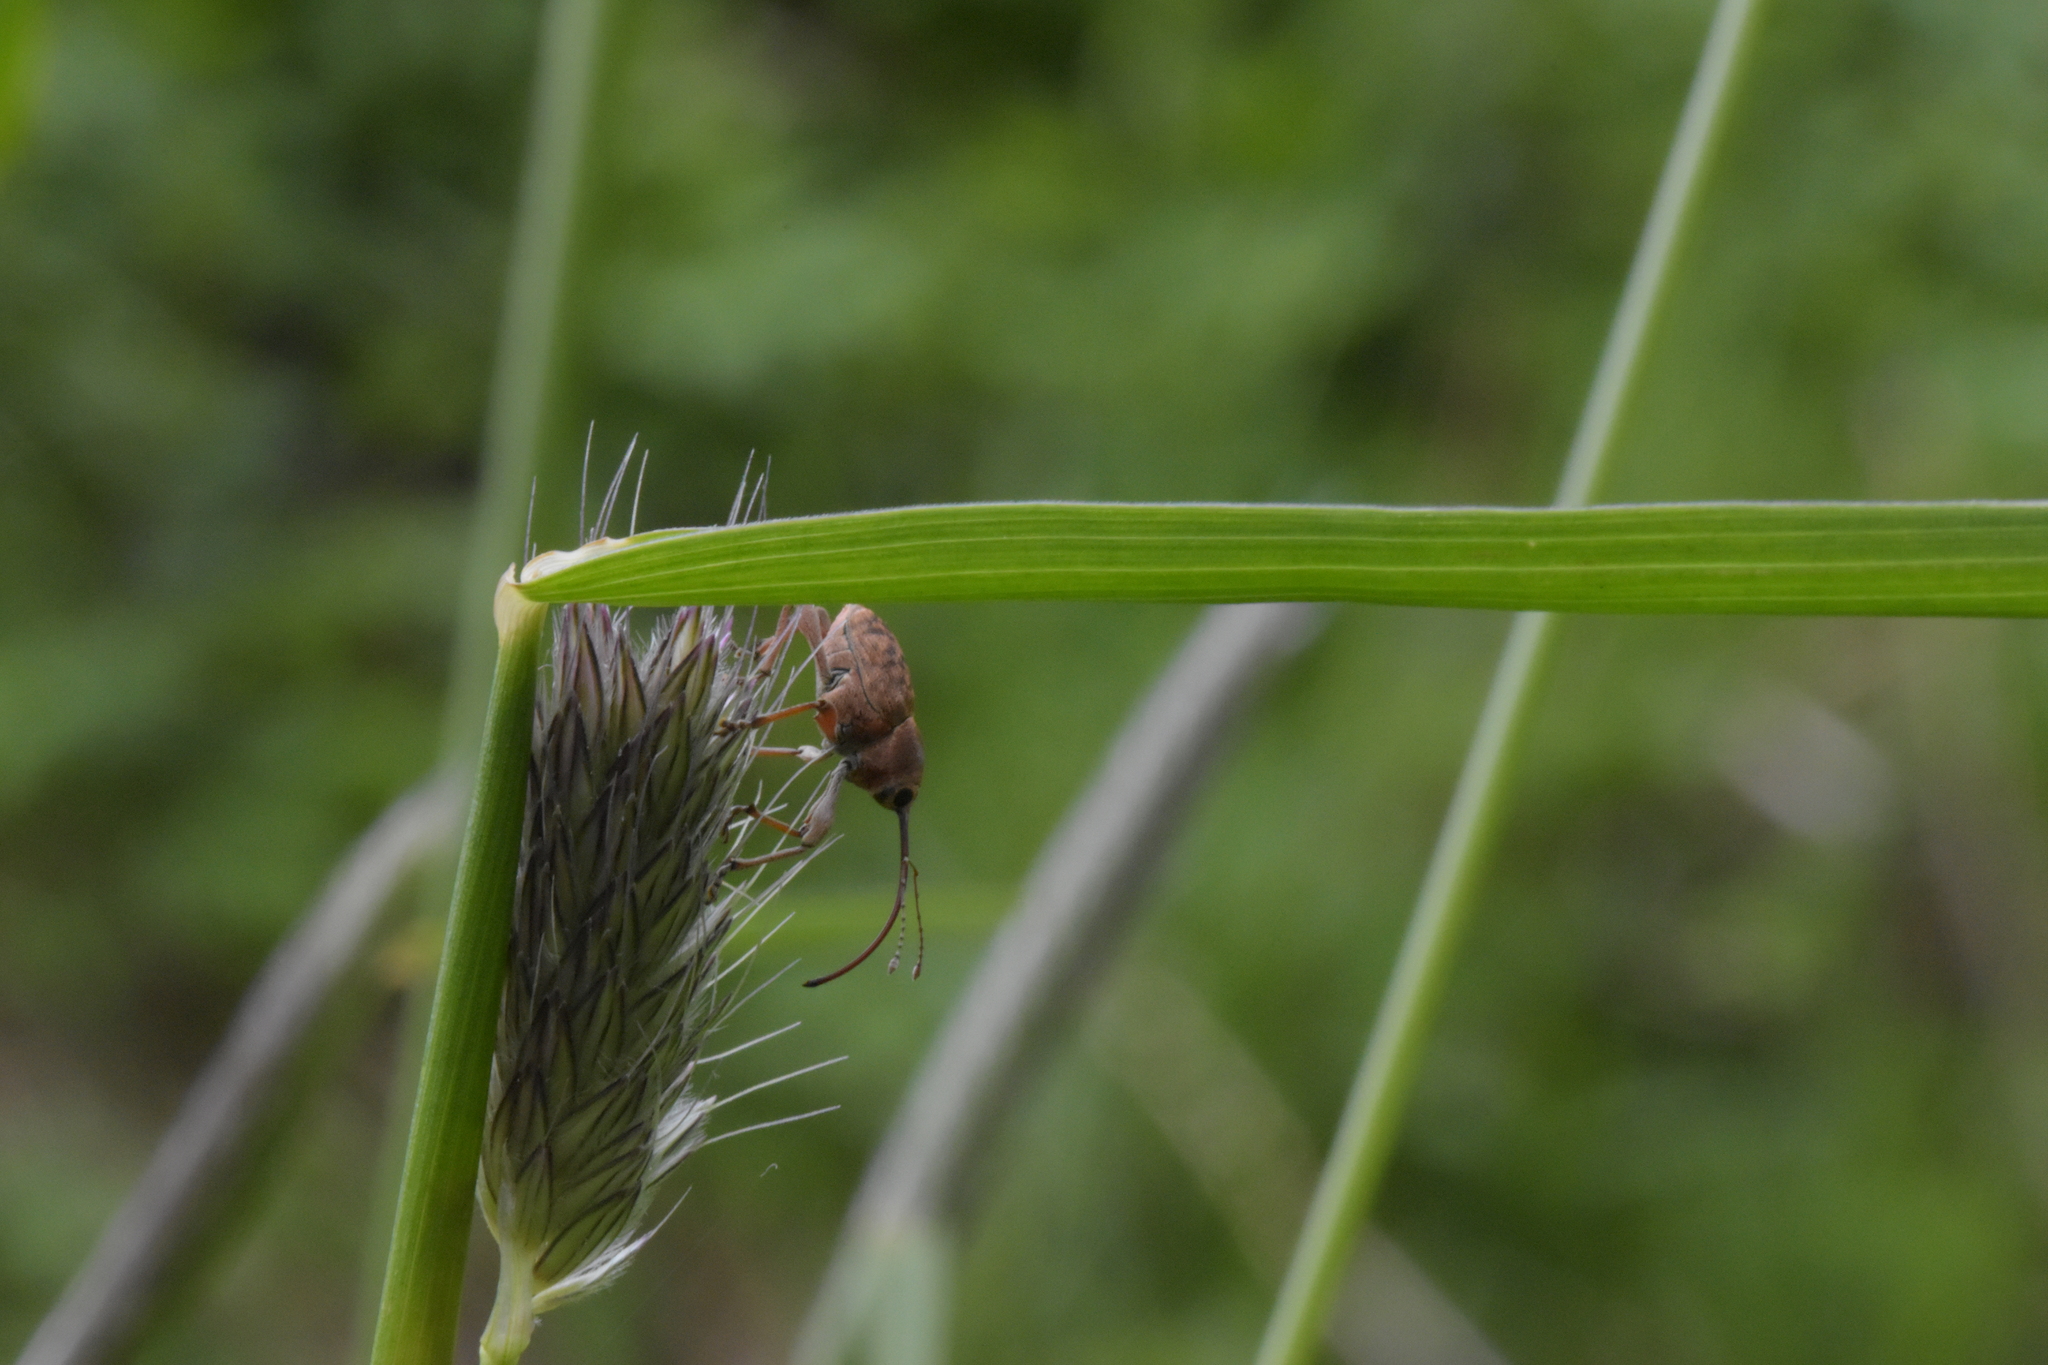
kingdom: Animalia
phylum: Arthropoda
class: Insecta
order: Coleoptera
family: Curculionidae
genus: Curculio
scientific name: Curculio glandium
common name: Acorn weevil
